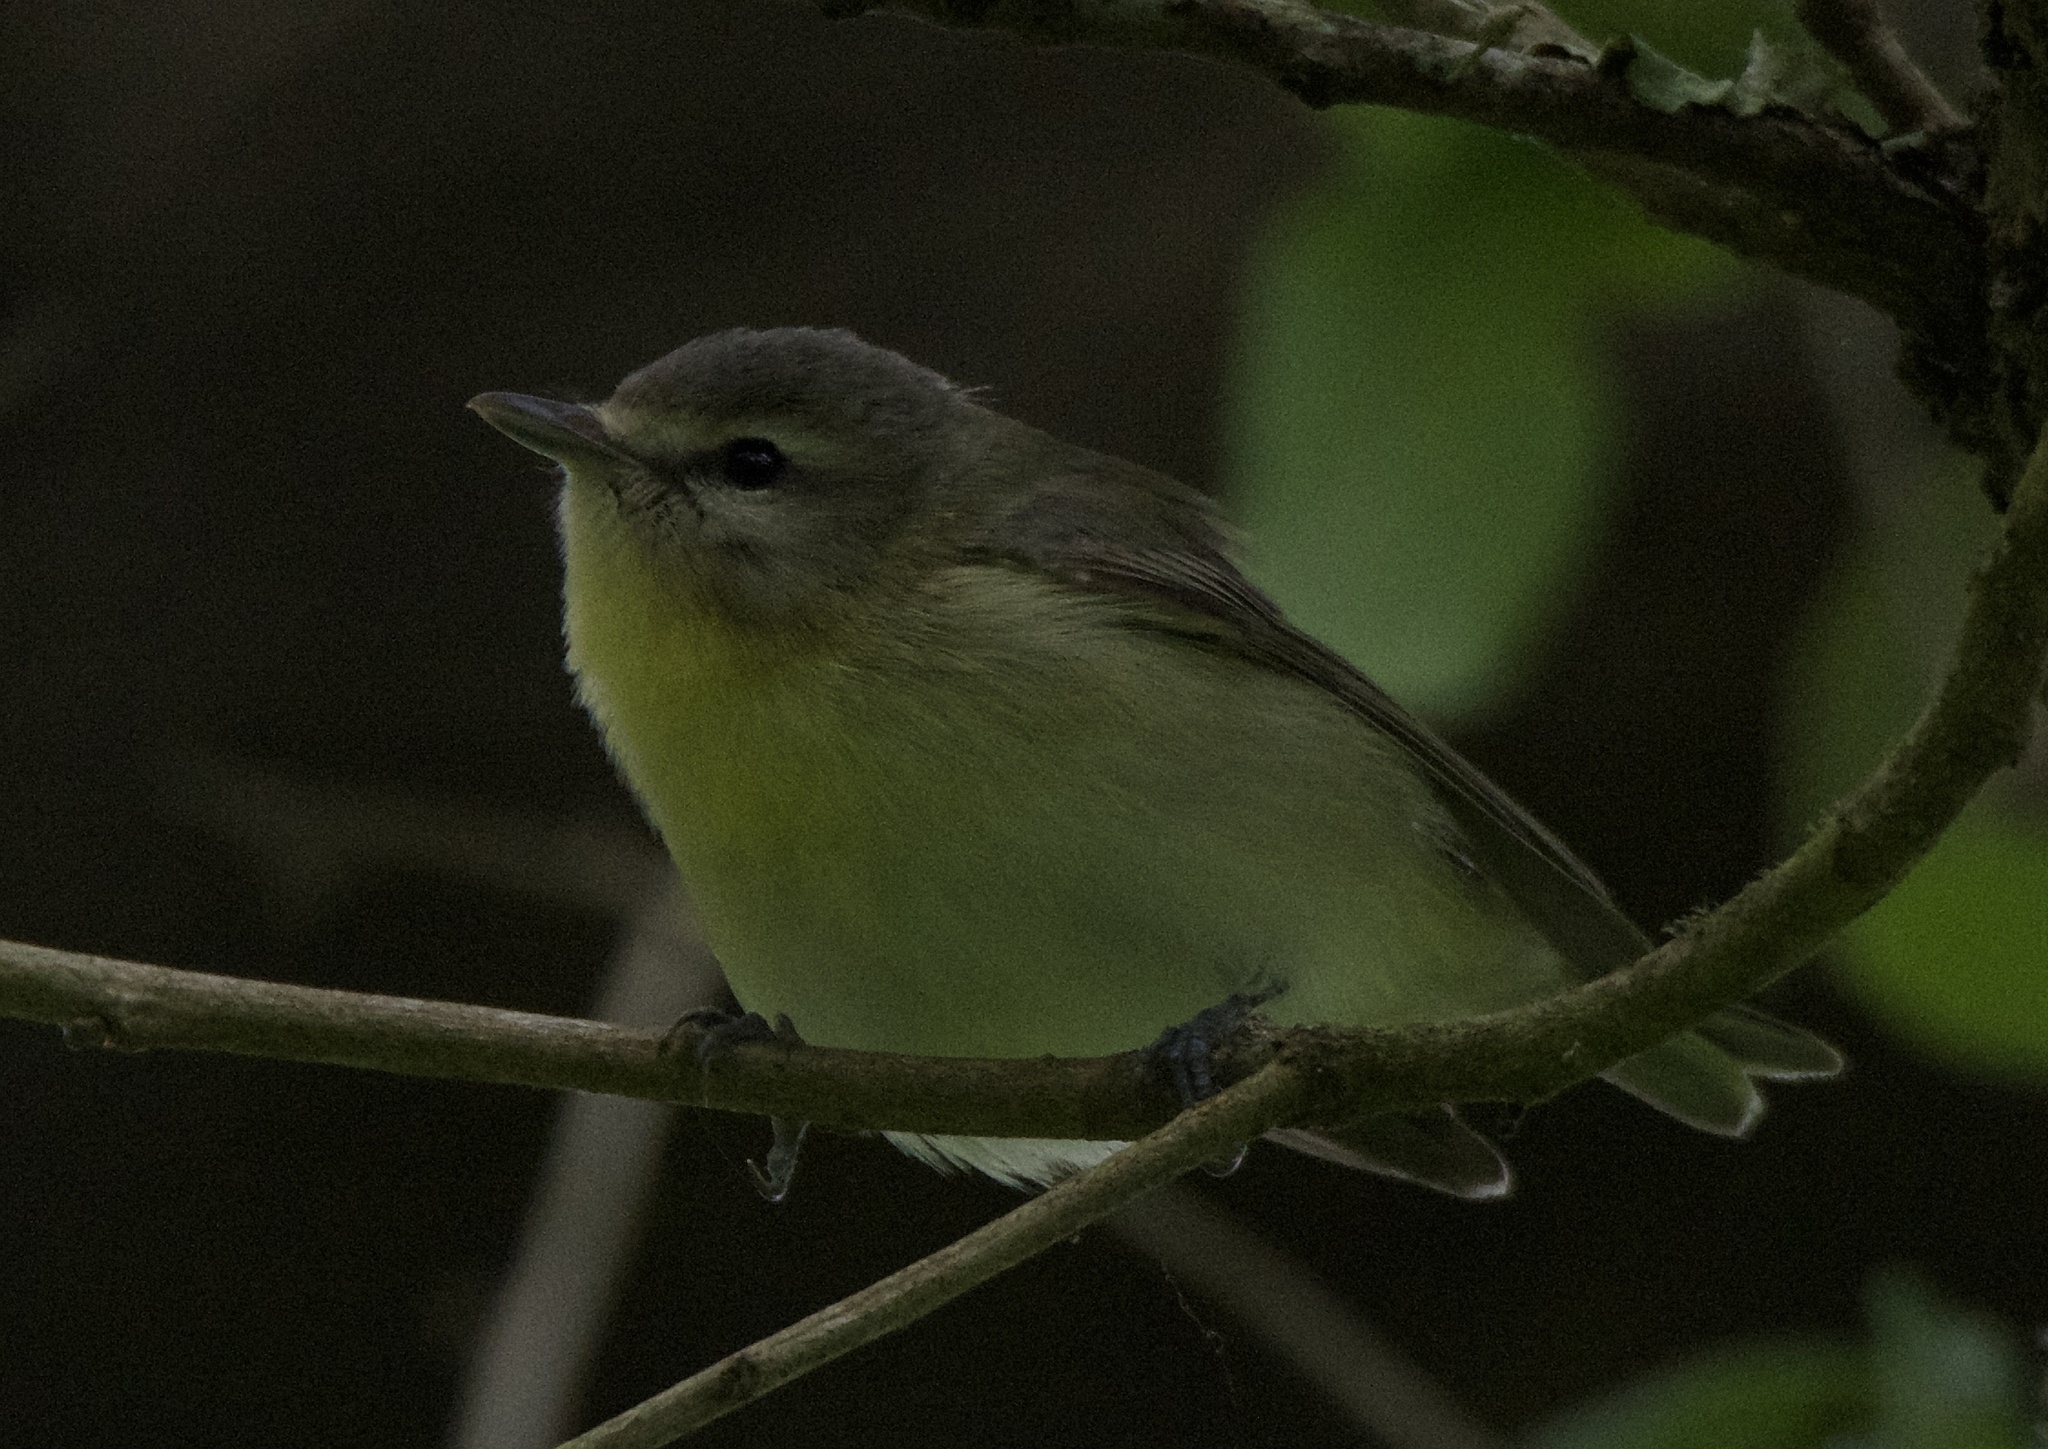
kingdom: Animalia
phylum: Chordata
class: Aves
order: Passeriformes
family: Vireonidae
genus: Vireo
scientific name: Vireo philadelphicus
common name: Philadelphia vireo
